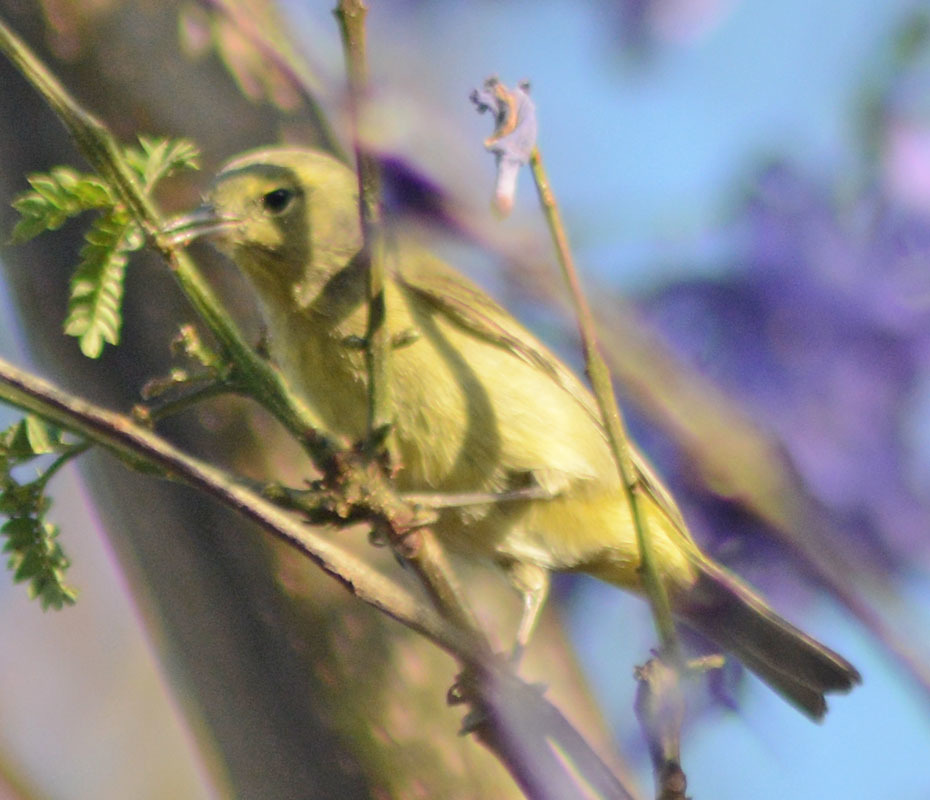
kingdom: Animalia
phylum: Chordata
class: Aves
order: Passeriformes
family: Parulidae
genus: Leiothlypis
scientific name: Leiothlypis celata
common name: Orange-crowned warbler
